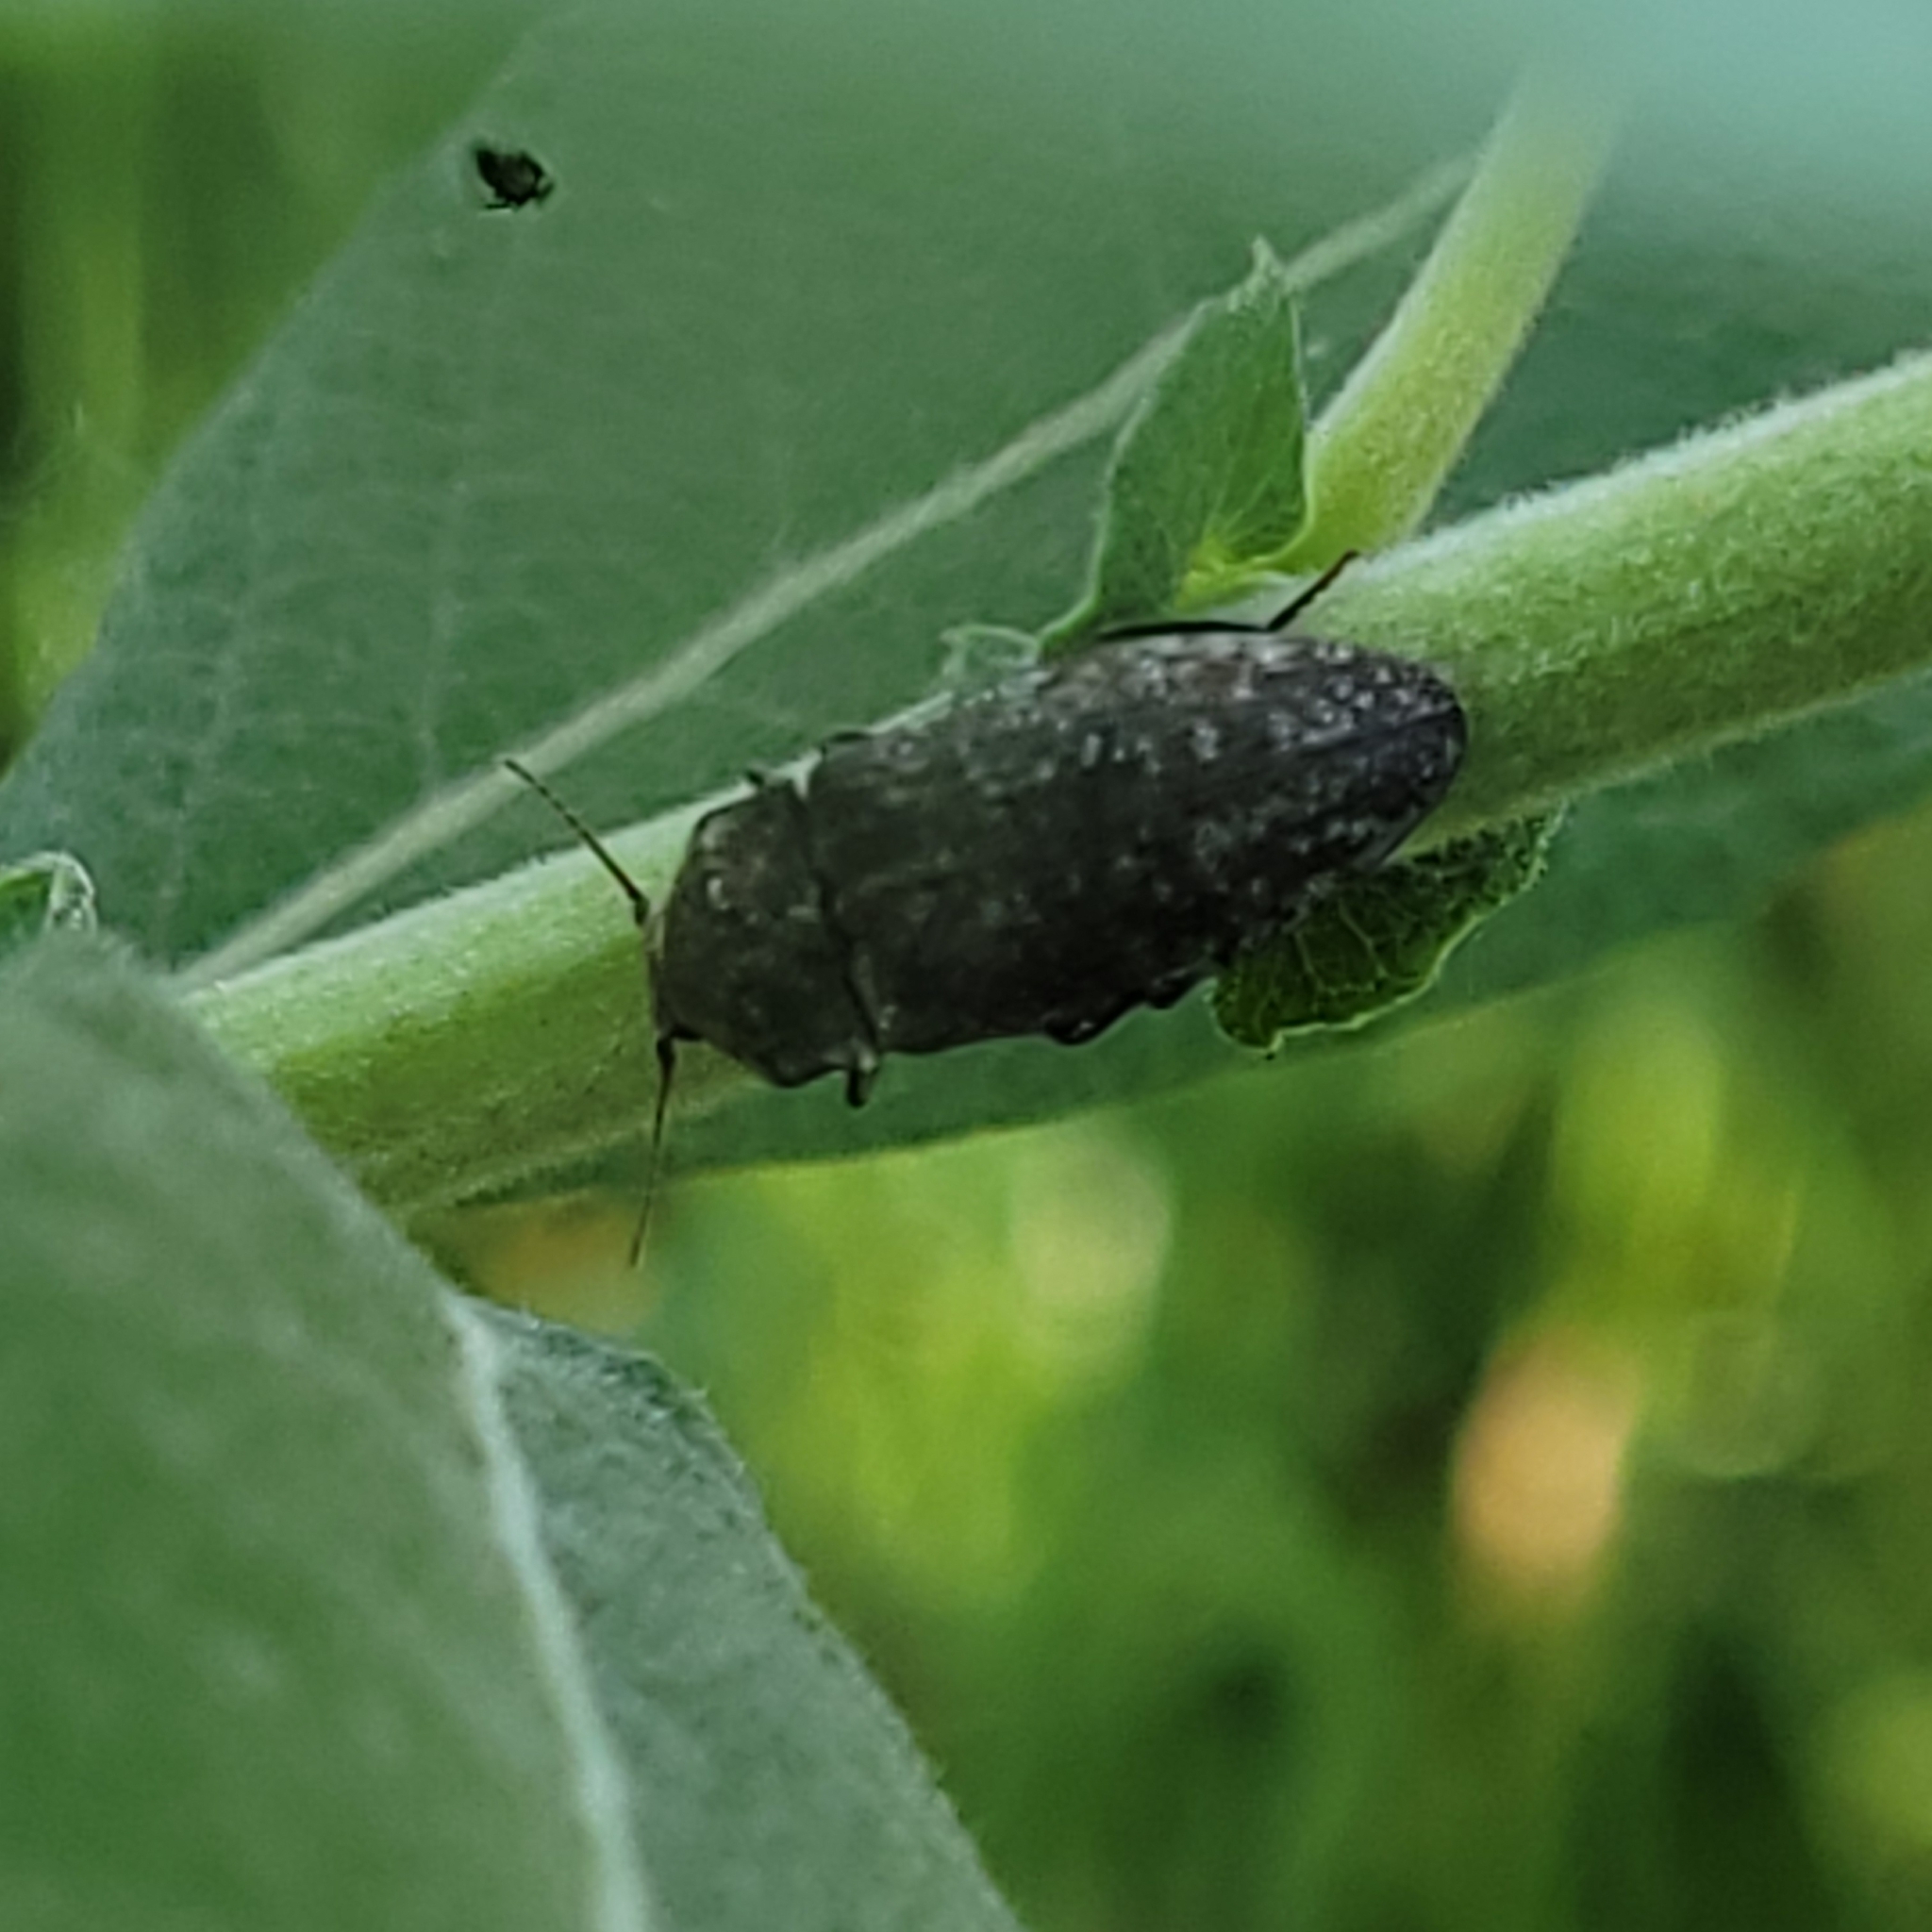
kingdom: Animalia
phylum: Arthropoda
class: Insecta
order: Coleoptera
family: Elateridae
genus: Agrypnus
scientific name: Agrypnus murinus
